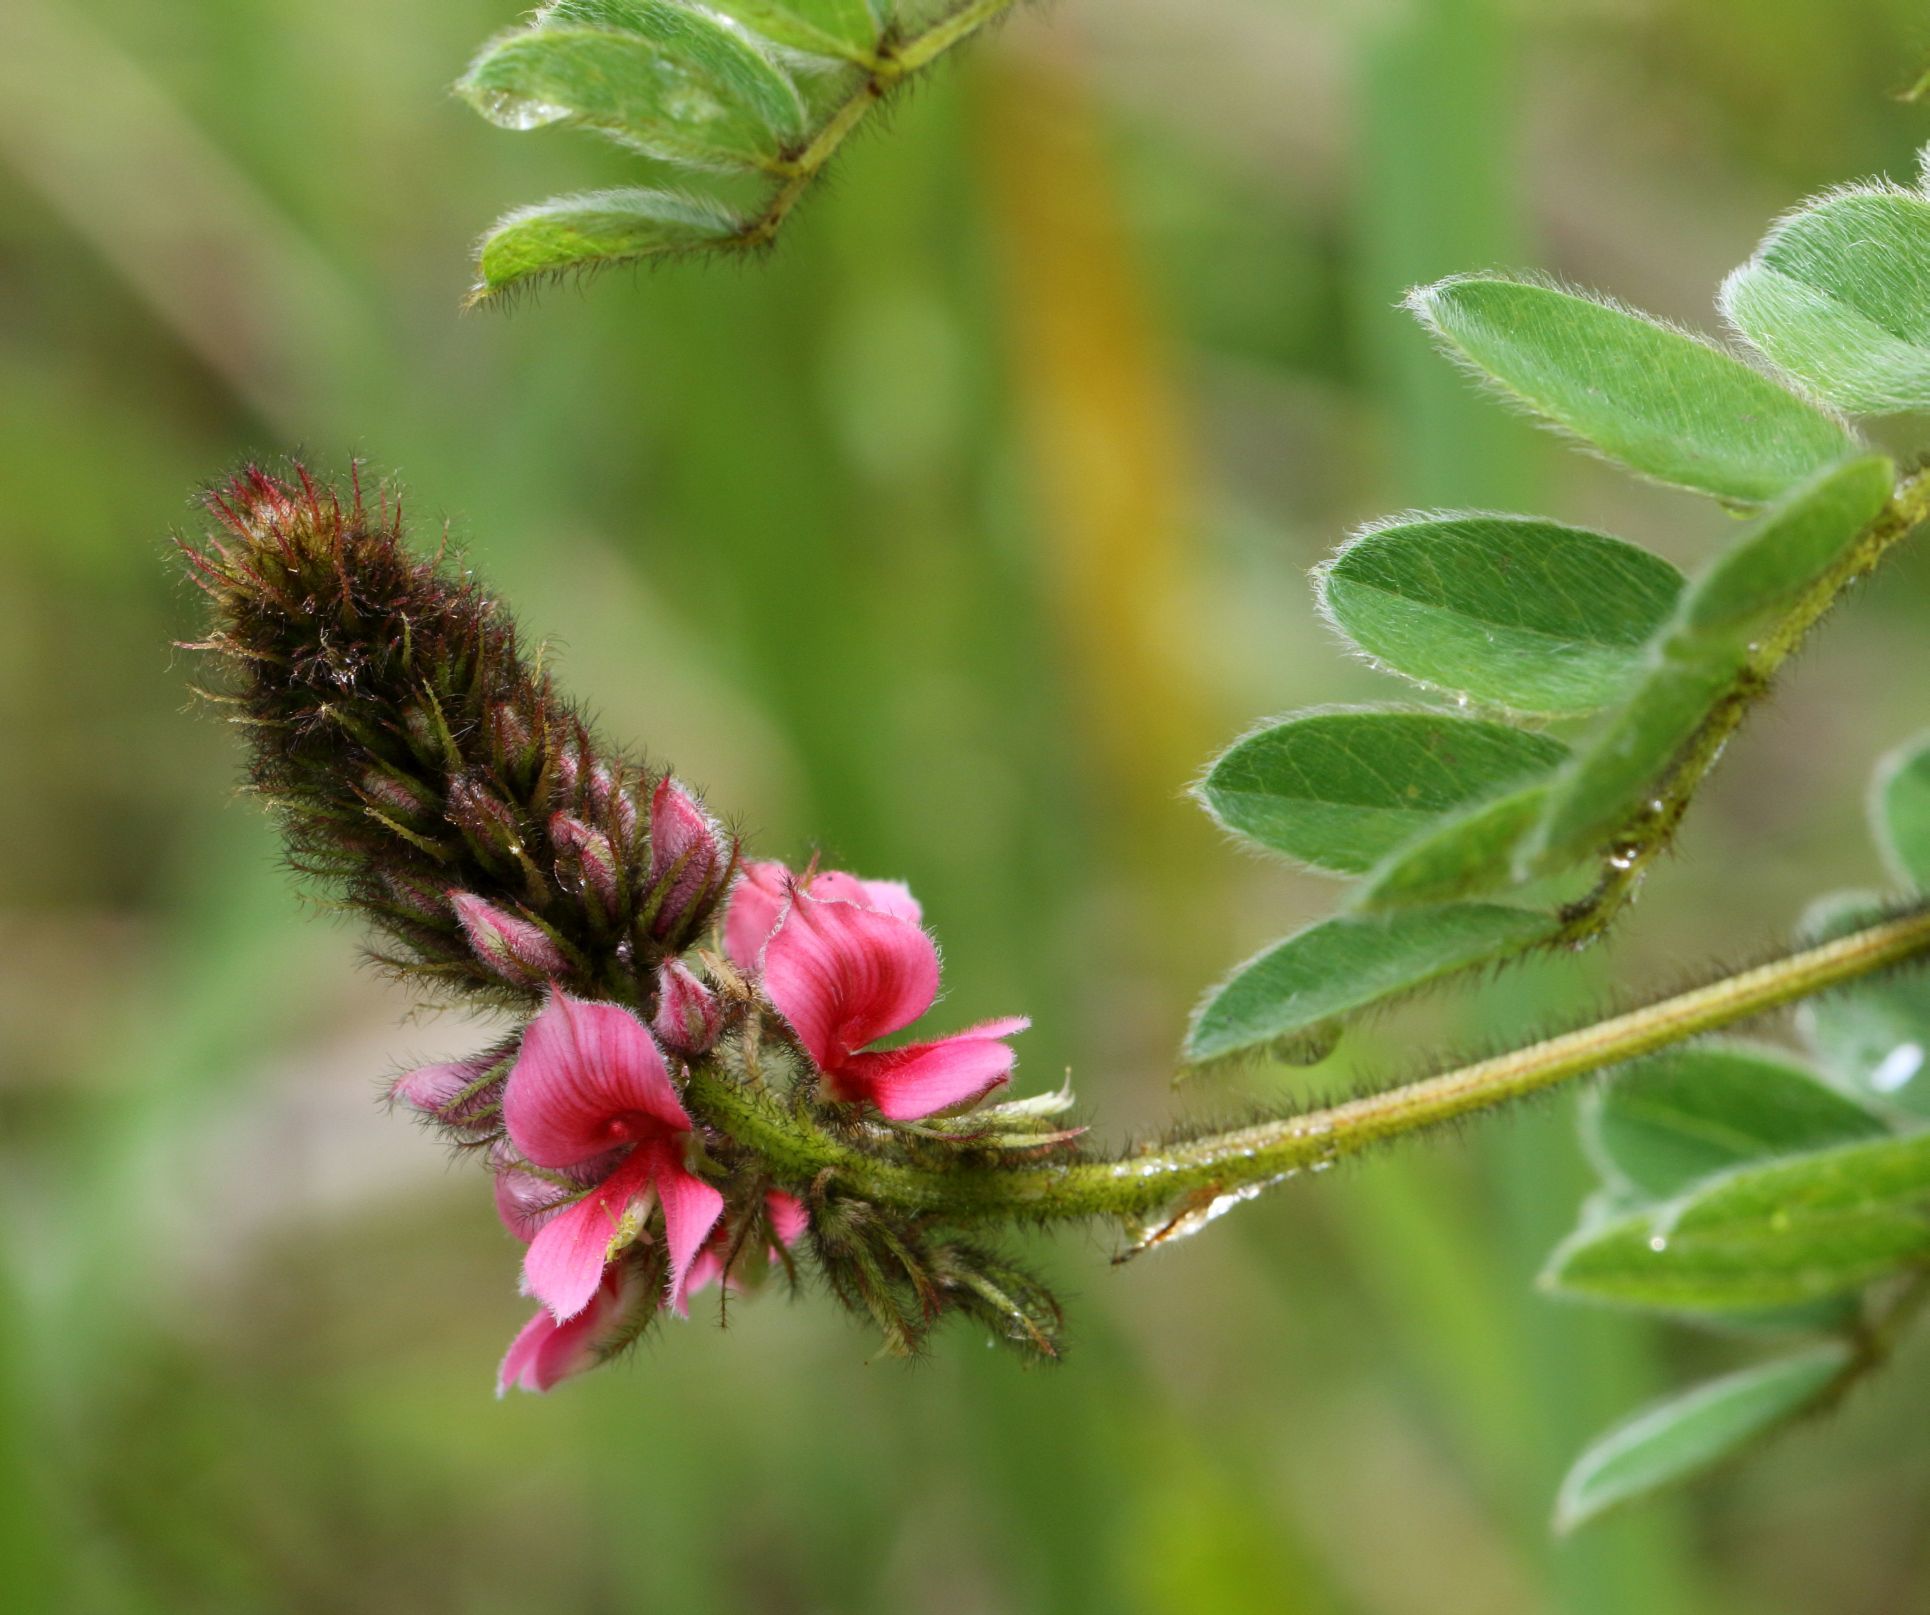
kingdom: Plantae
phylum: Tracheophyta
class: Magnoliopsida
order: Fabales
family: Fabaceae
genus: Indigofera
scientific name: Indigofera schlechteri
